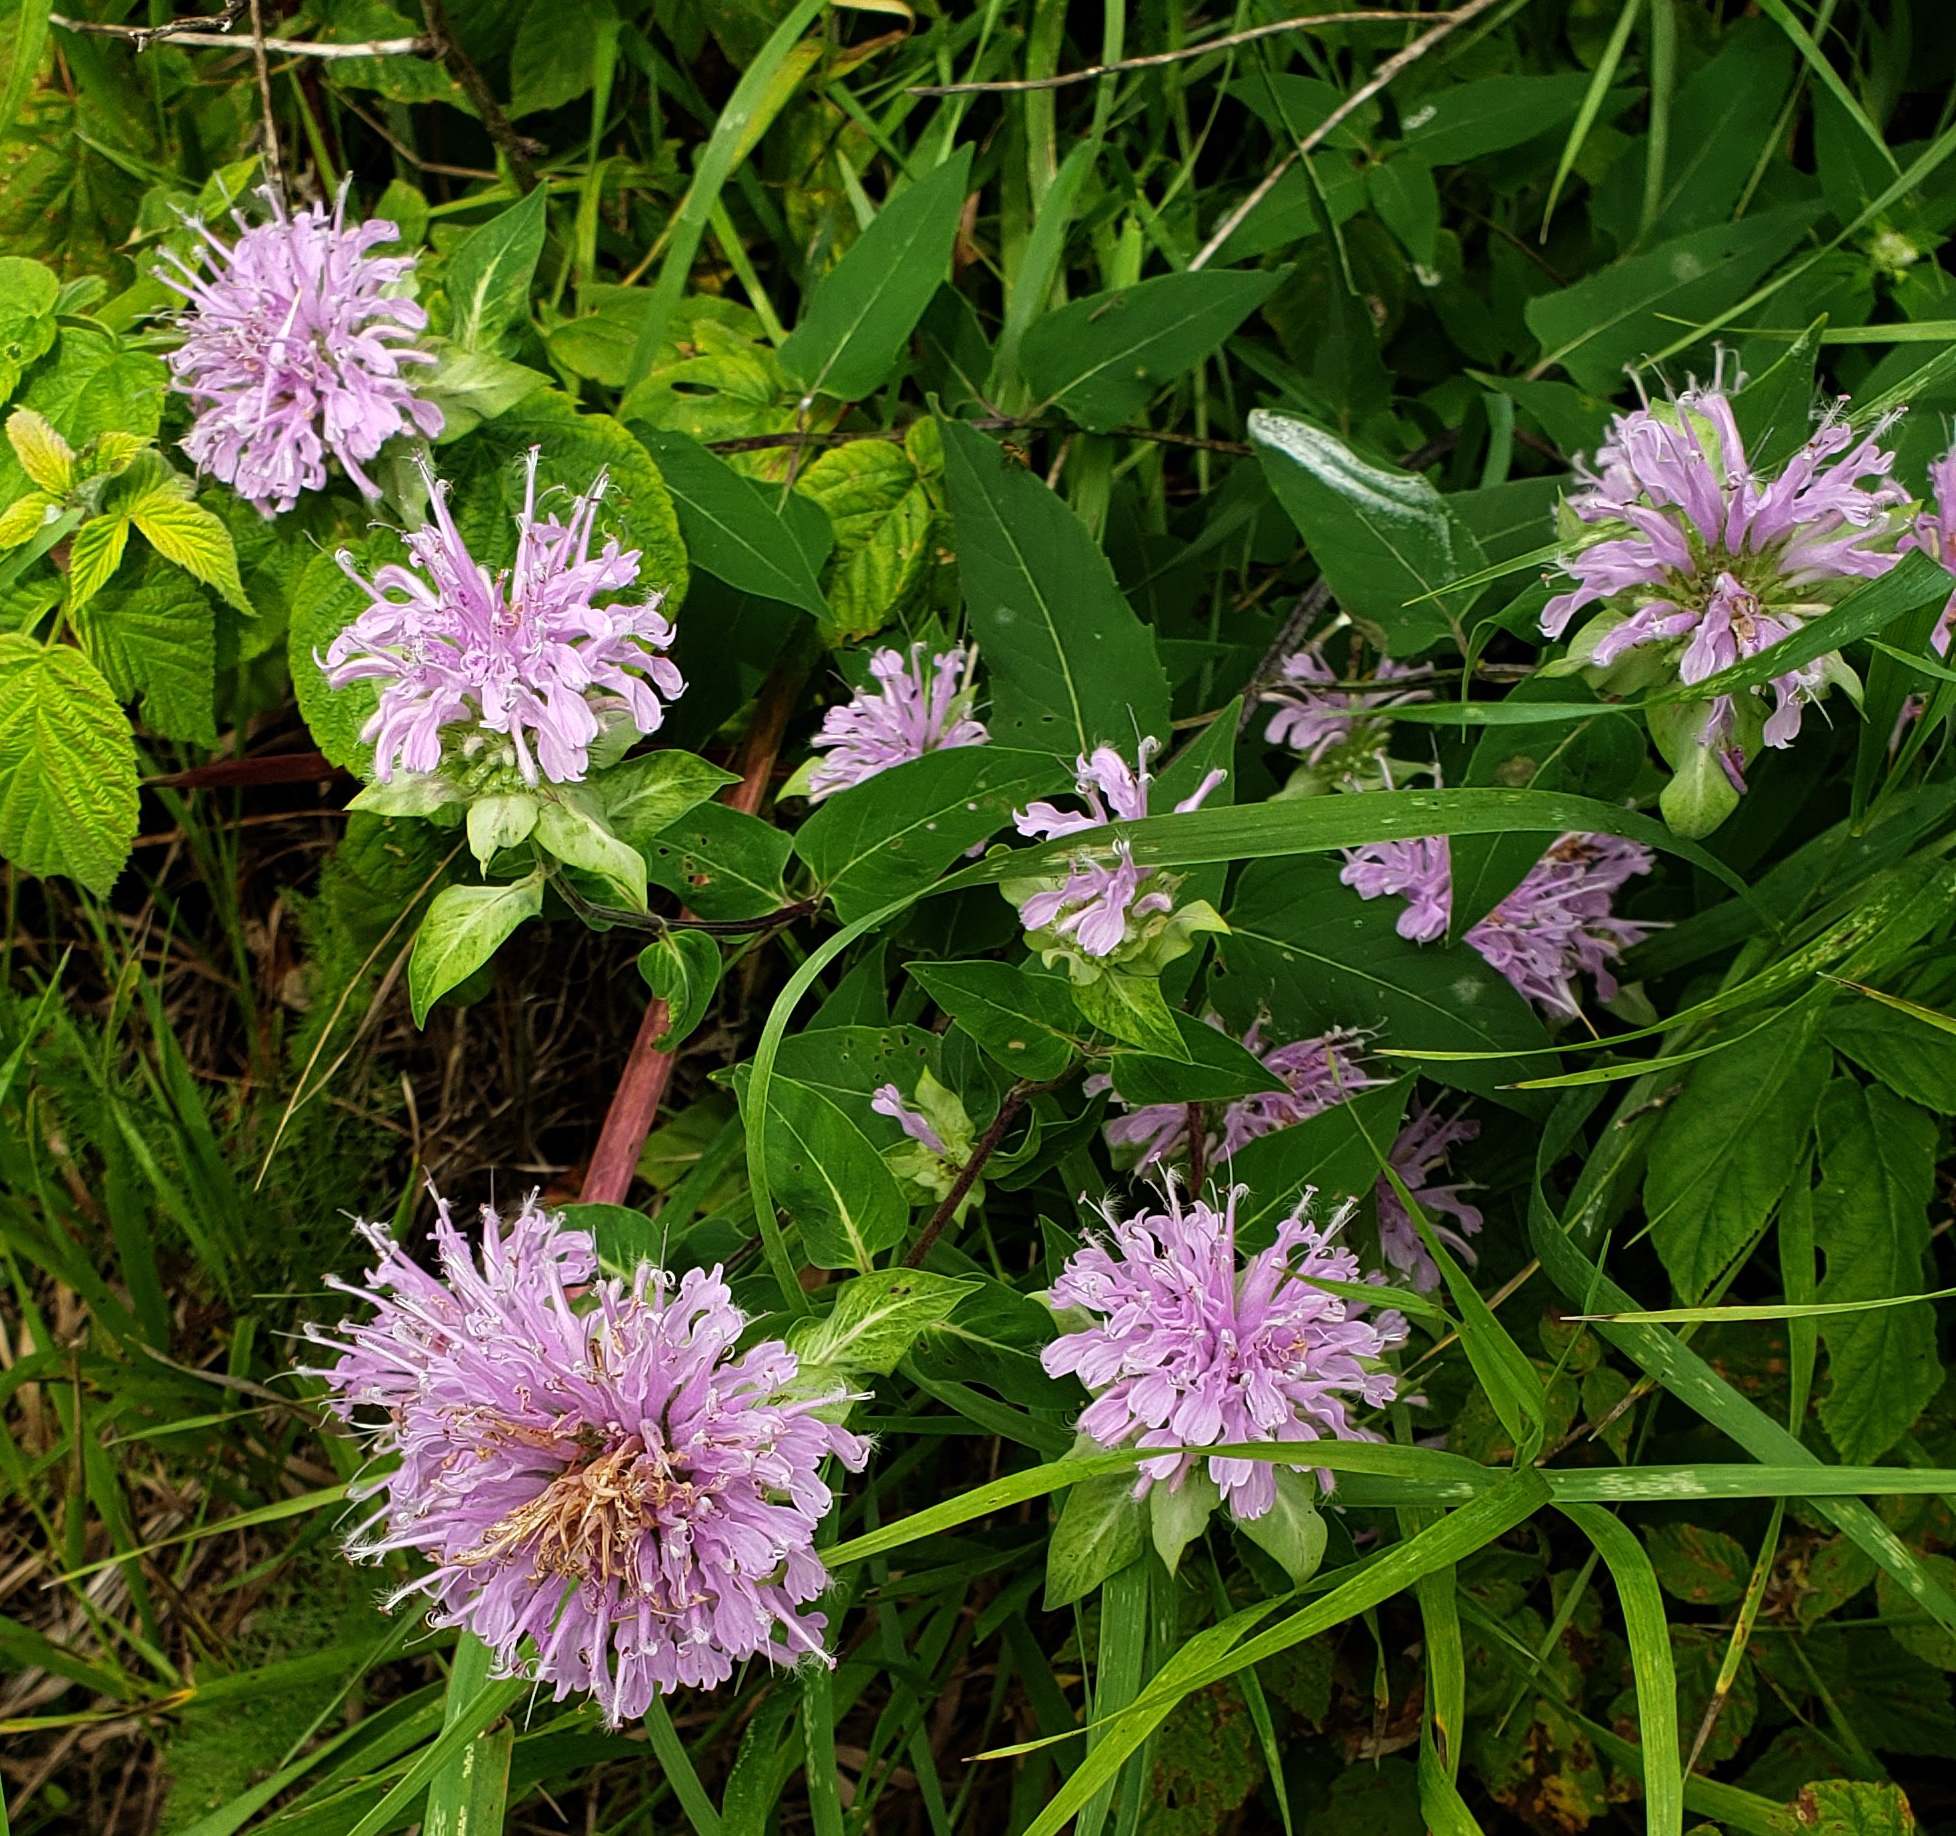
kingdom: Plantae
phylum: Tracheophyta
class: Magnoliopsida
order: Lamiales
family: Lamiaceae
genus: Monarda
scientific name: Monarda fistulosa
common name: Purple beebalm
